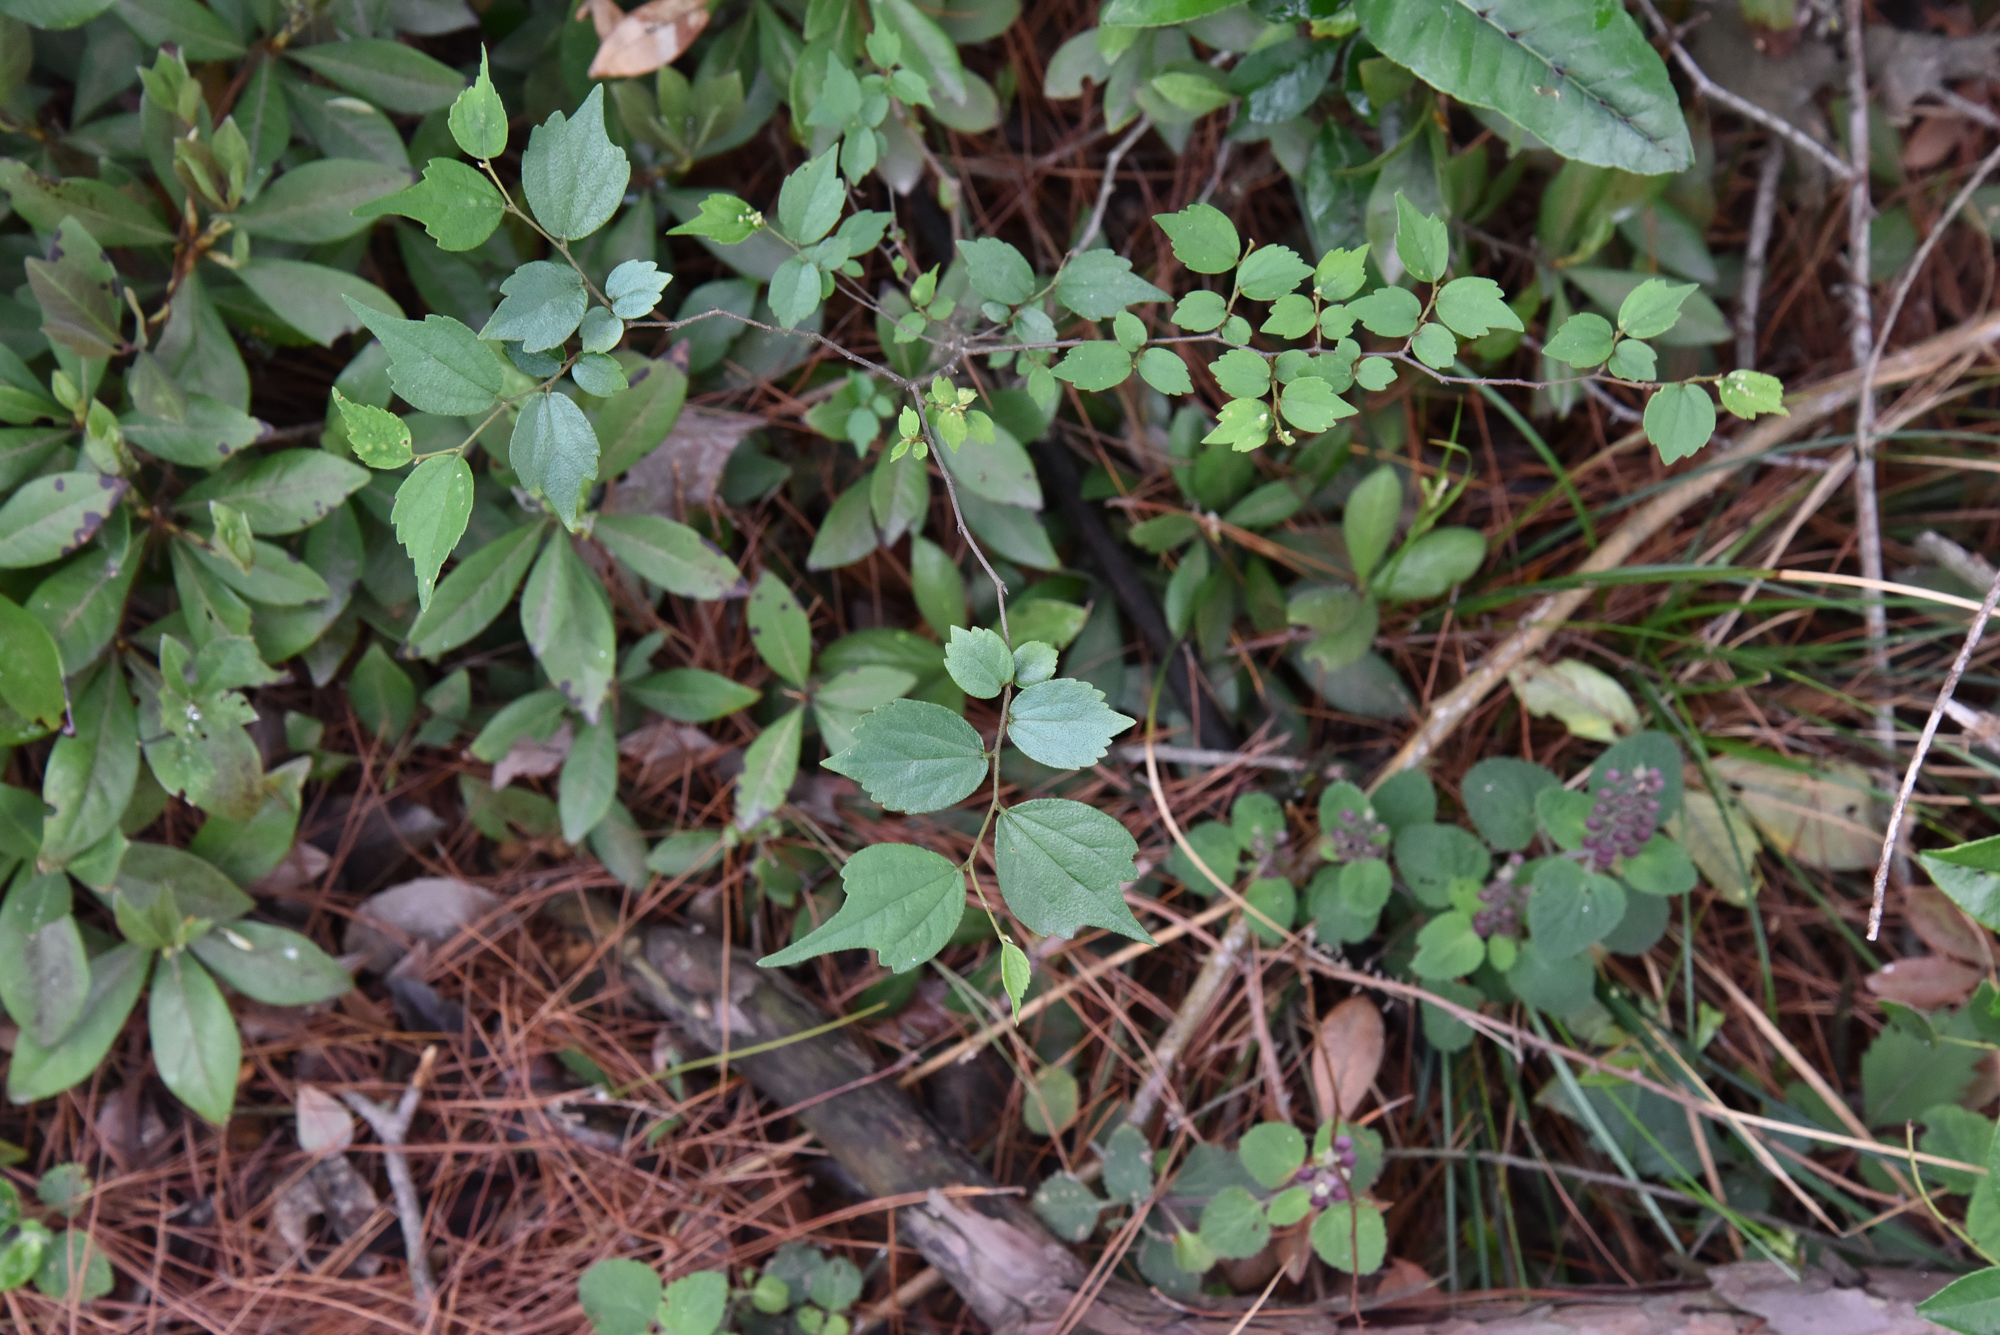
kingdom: Plantae
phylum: Tracheophyta
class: Magnoliopsida
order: Rosales
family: Cannabaceae
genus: Celtis
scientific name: Celtis biondii
